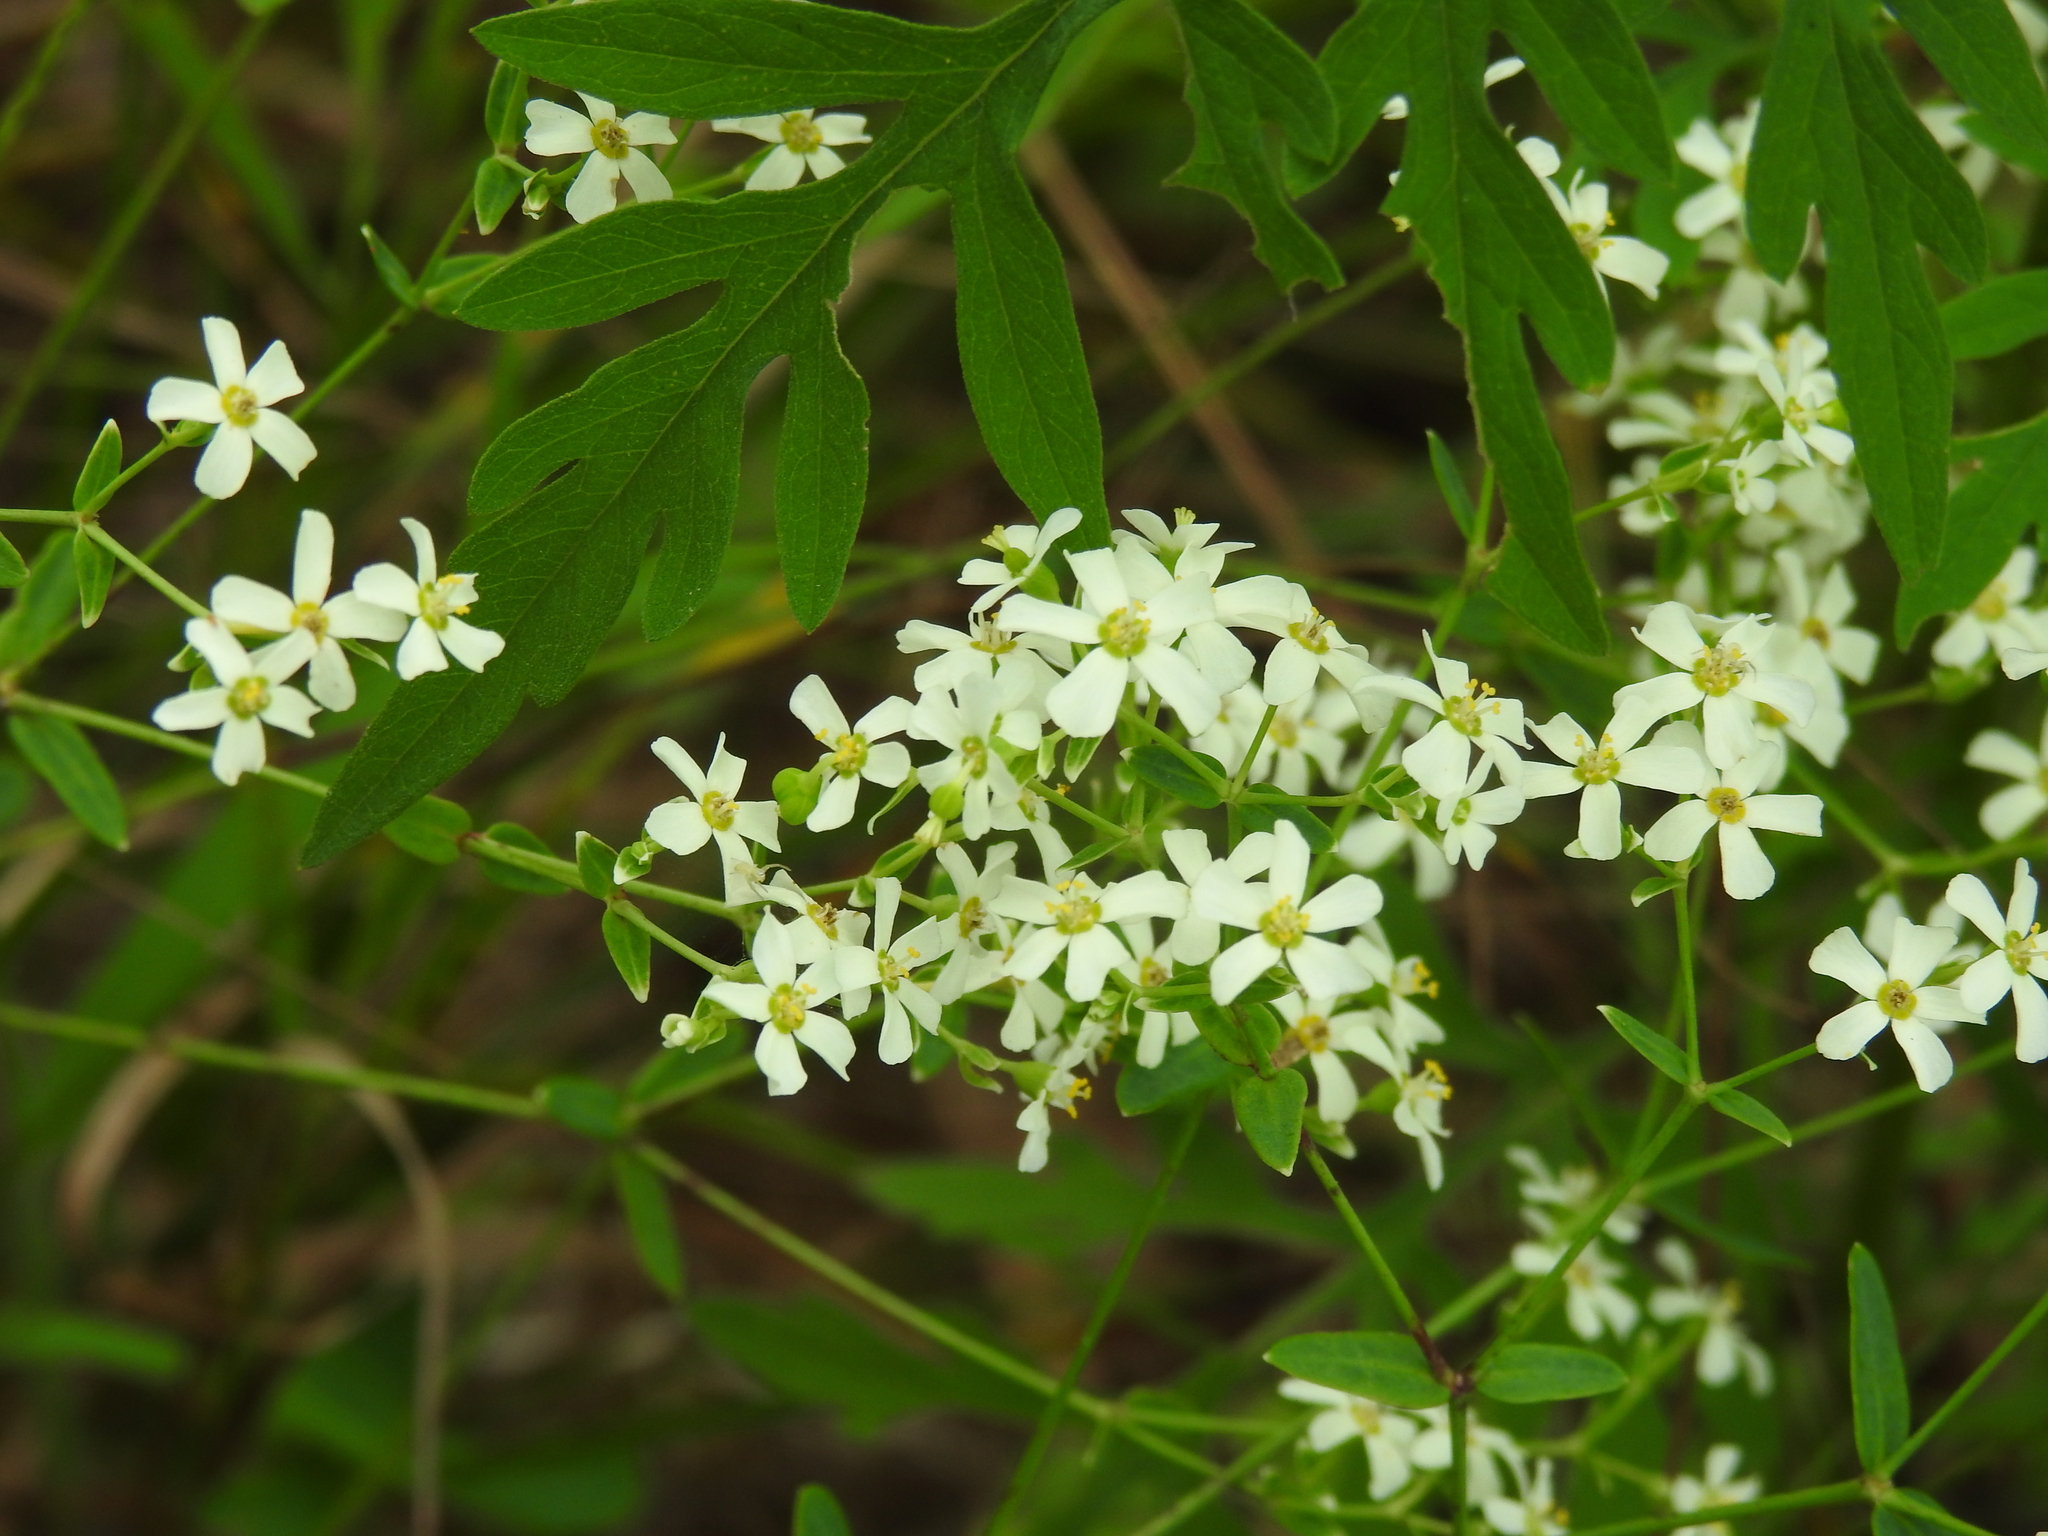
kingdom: Plantae
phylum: Tracheophyta
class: Magnoliopsida
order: Malpighiales
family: Euphorbiaceae
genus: Euphorbia
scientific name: Euphorbia corollata
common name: Flowering spurge
